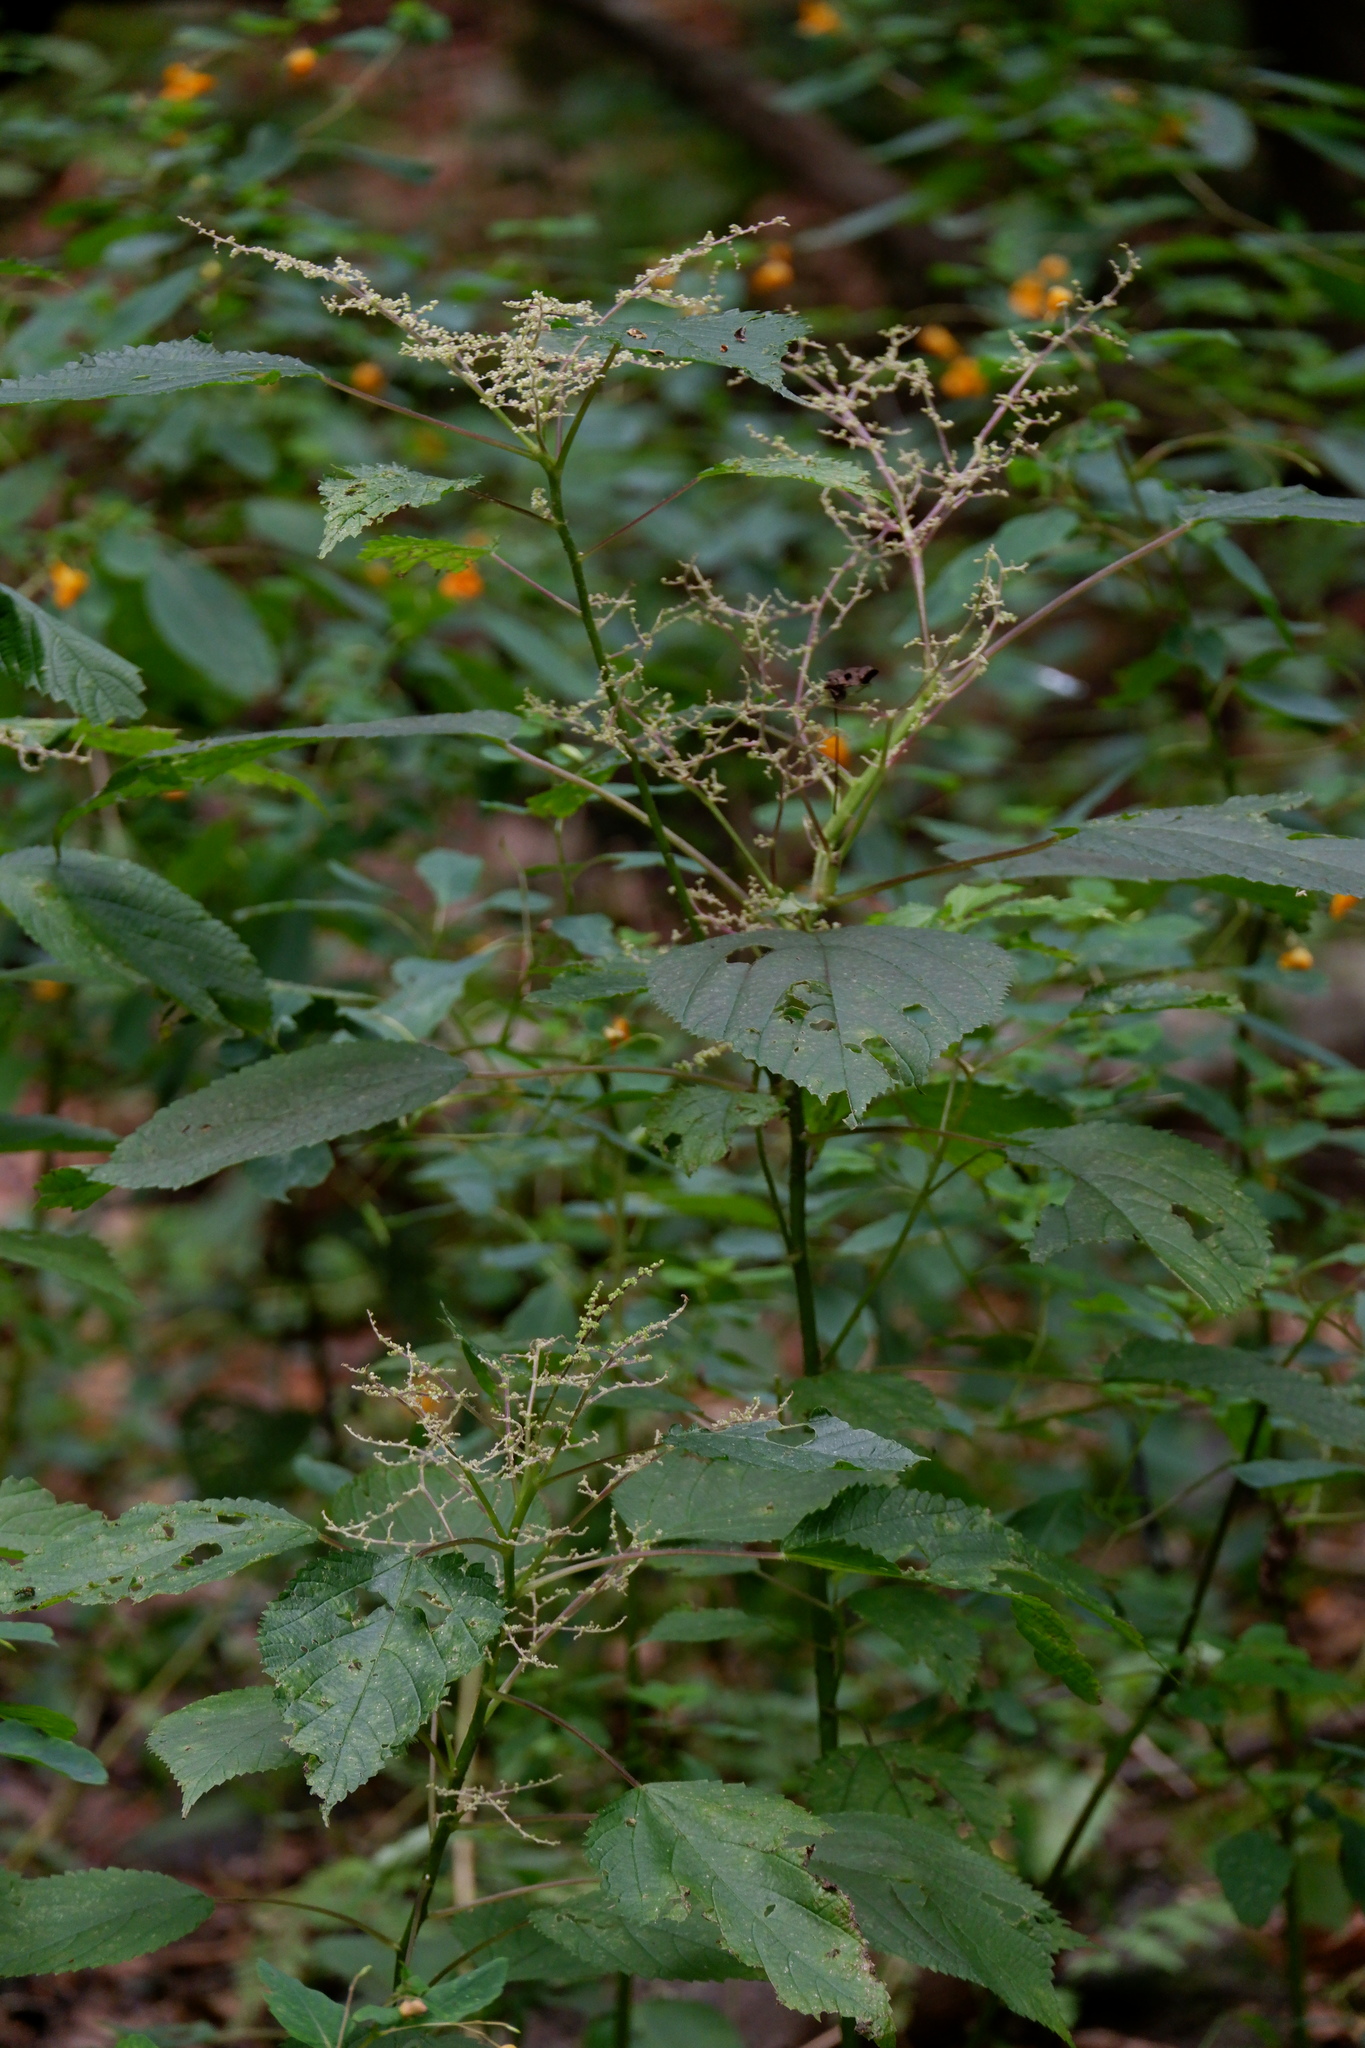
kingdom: Plantae
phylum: Tracheophyta
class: Magnoliopsida
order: Rosales
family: Urticaceae
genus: Laportea
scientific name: Laportea canadensis
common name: Canada nettle
